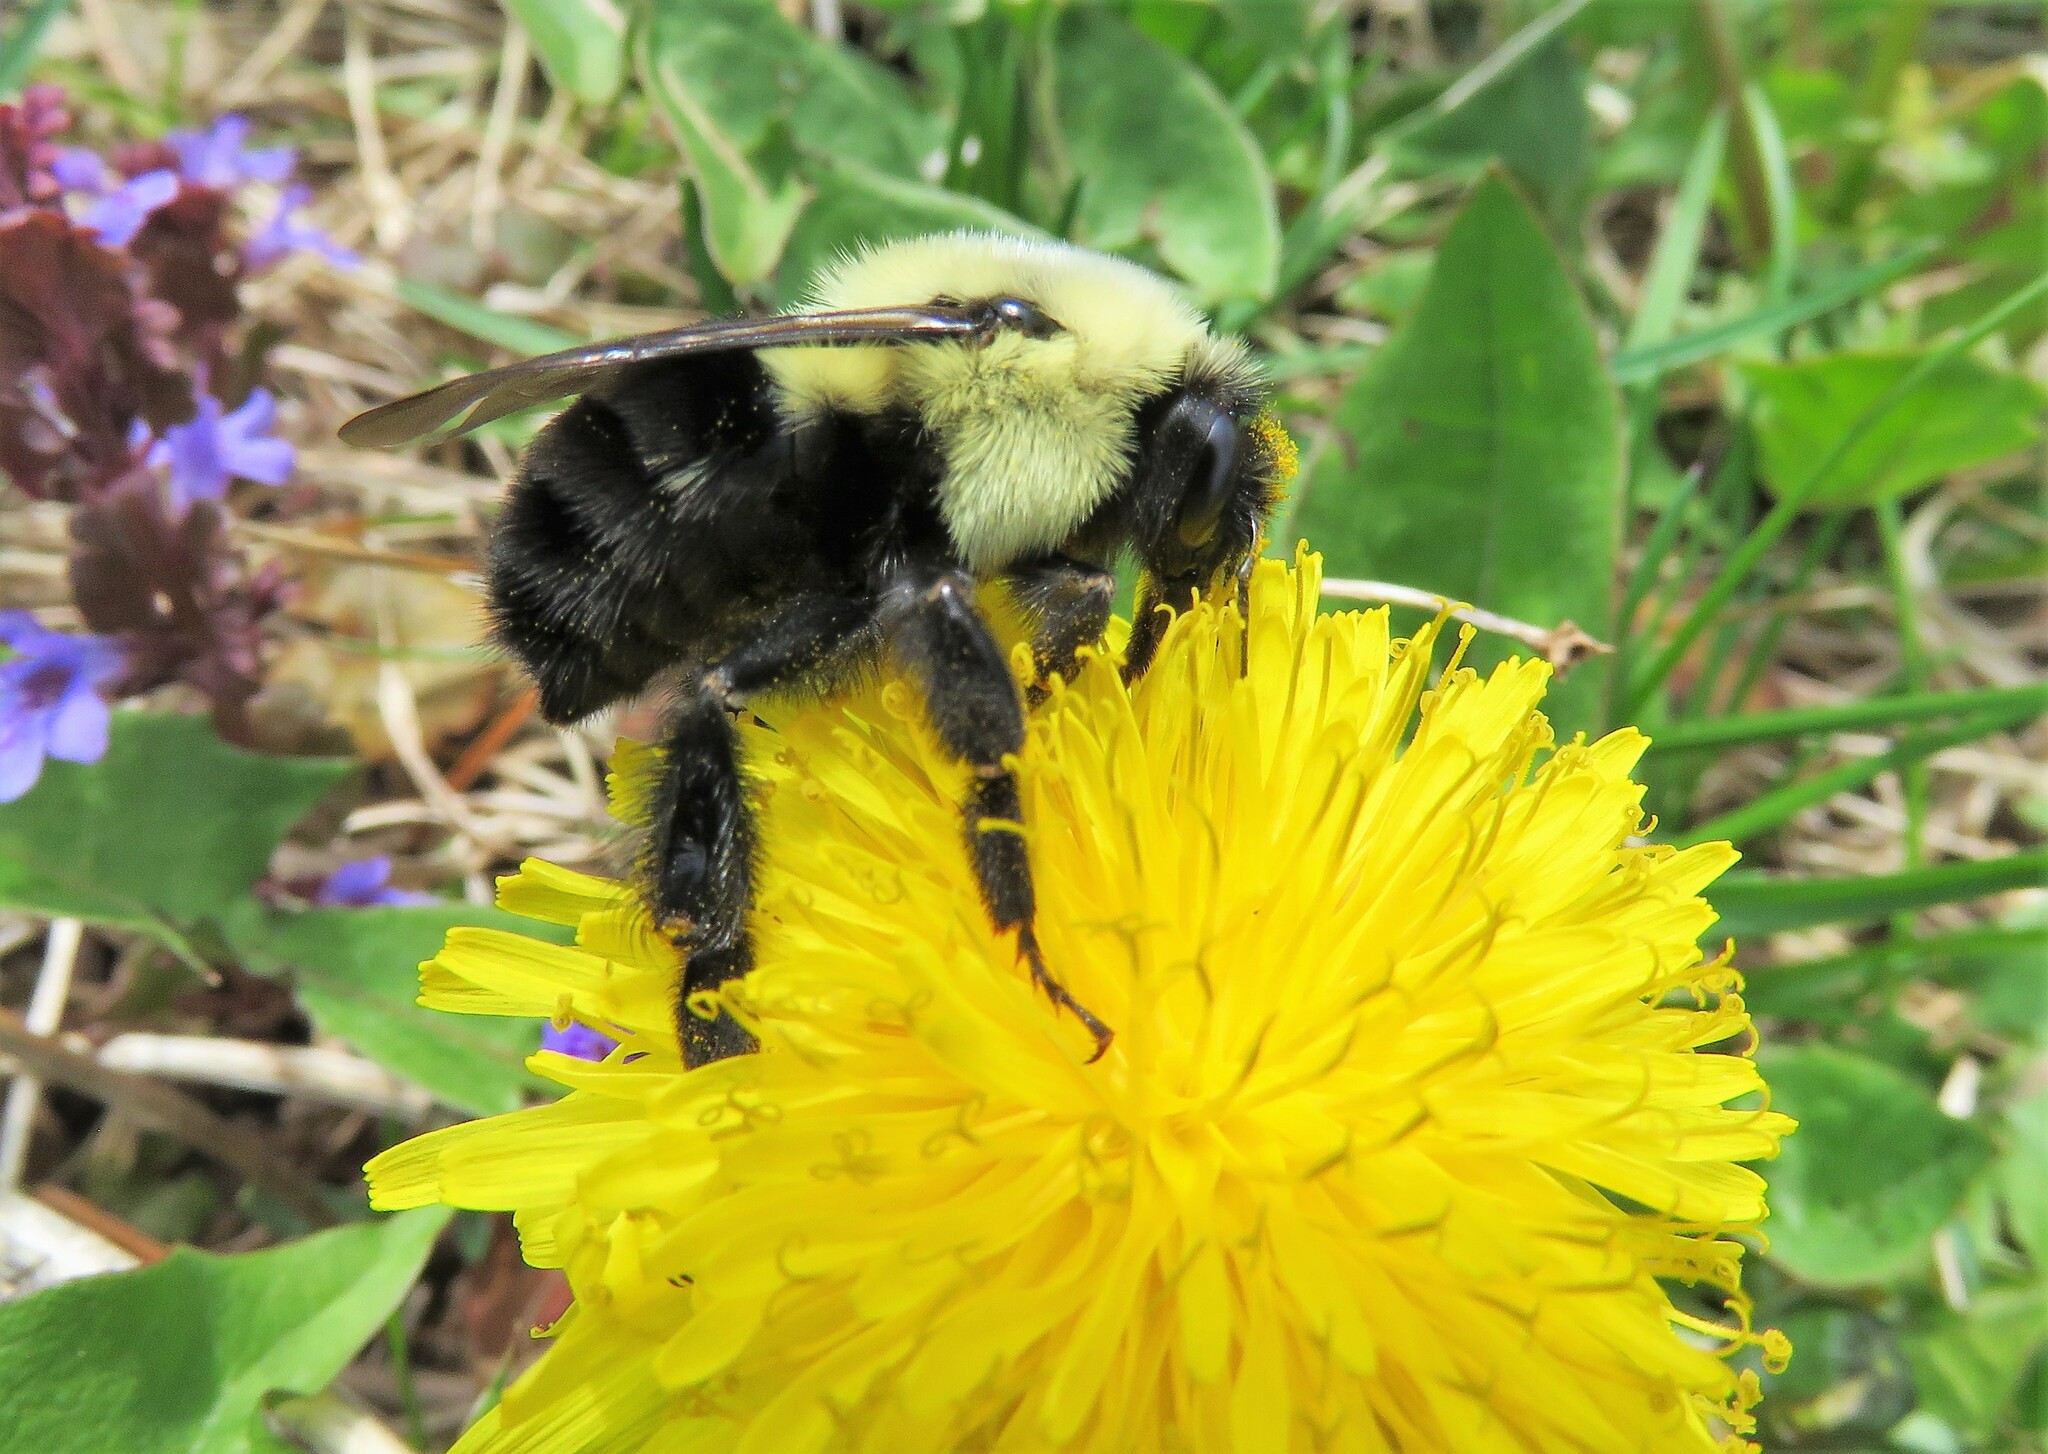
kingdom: Animalia
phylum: Arthropoda
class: Insecta
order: Hymenoptera
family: Apidae
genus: Bombus
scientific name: Bombus impatiens
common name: Common eastern bumble bee
